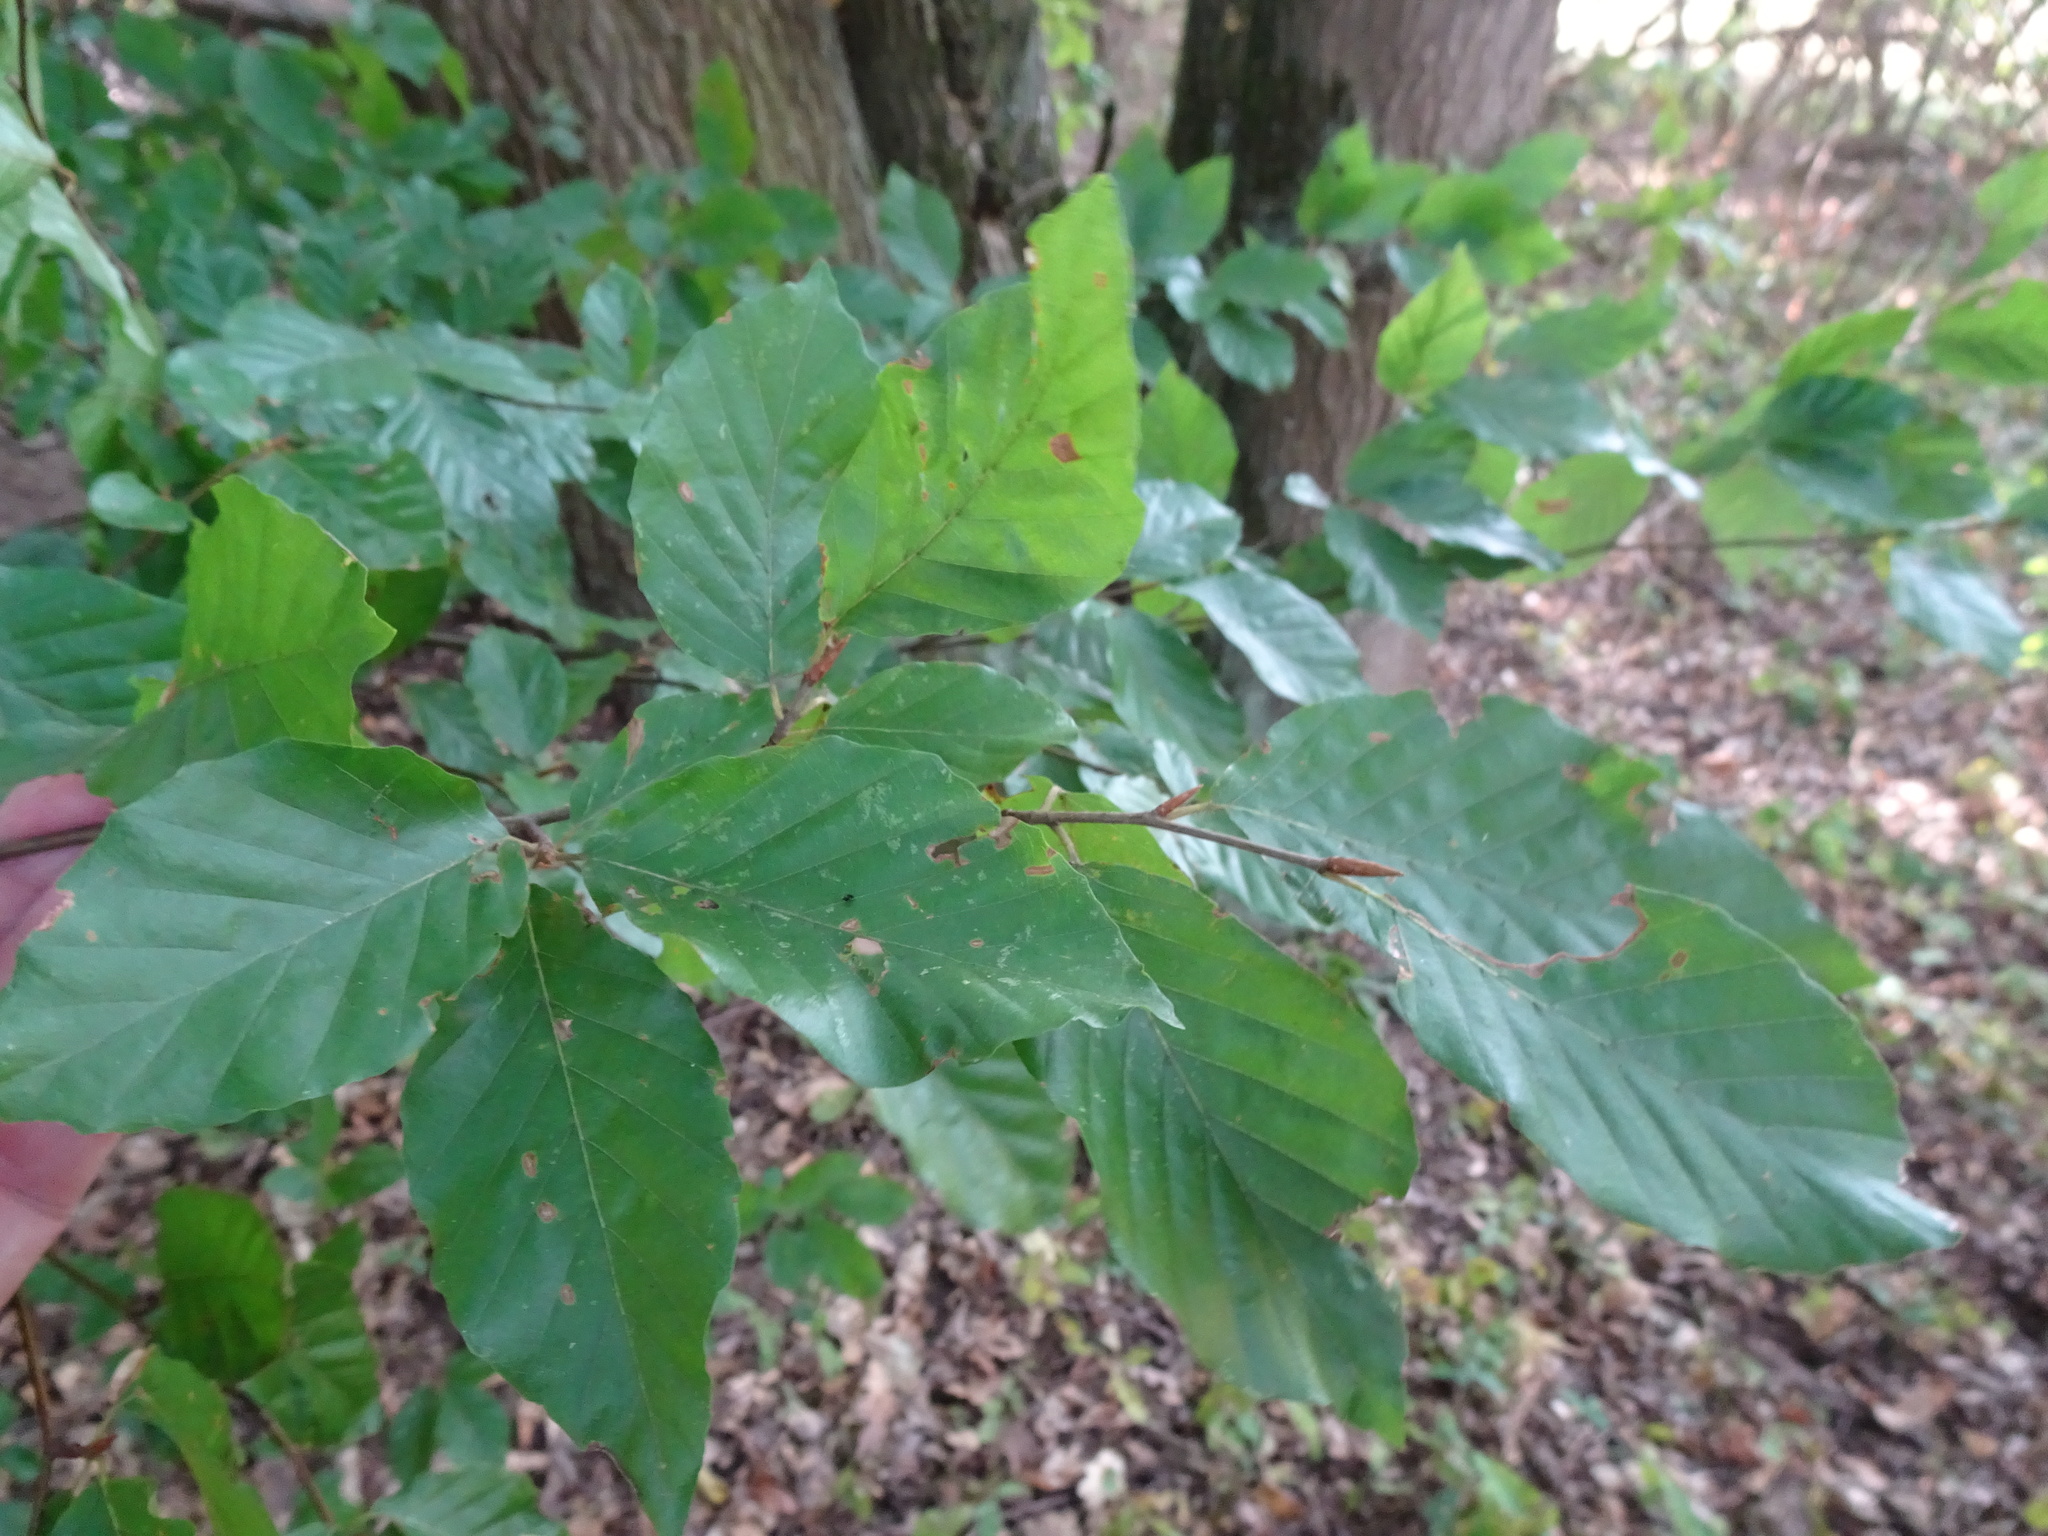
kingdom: Plantae
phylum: Tracheophyta
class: Magnoliopsida
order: Fagales
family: Fagaceae
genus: Fagus
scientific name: Fagus sylvatica
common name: Beech
